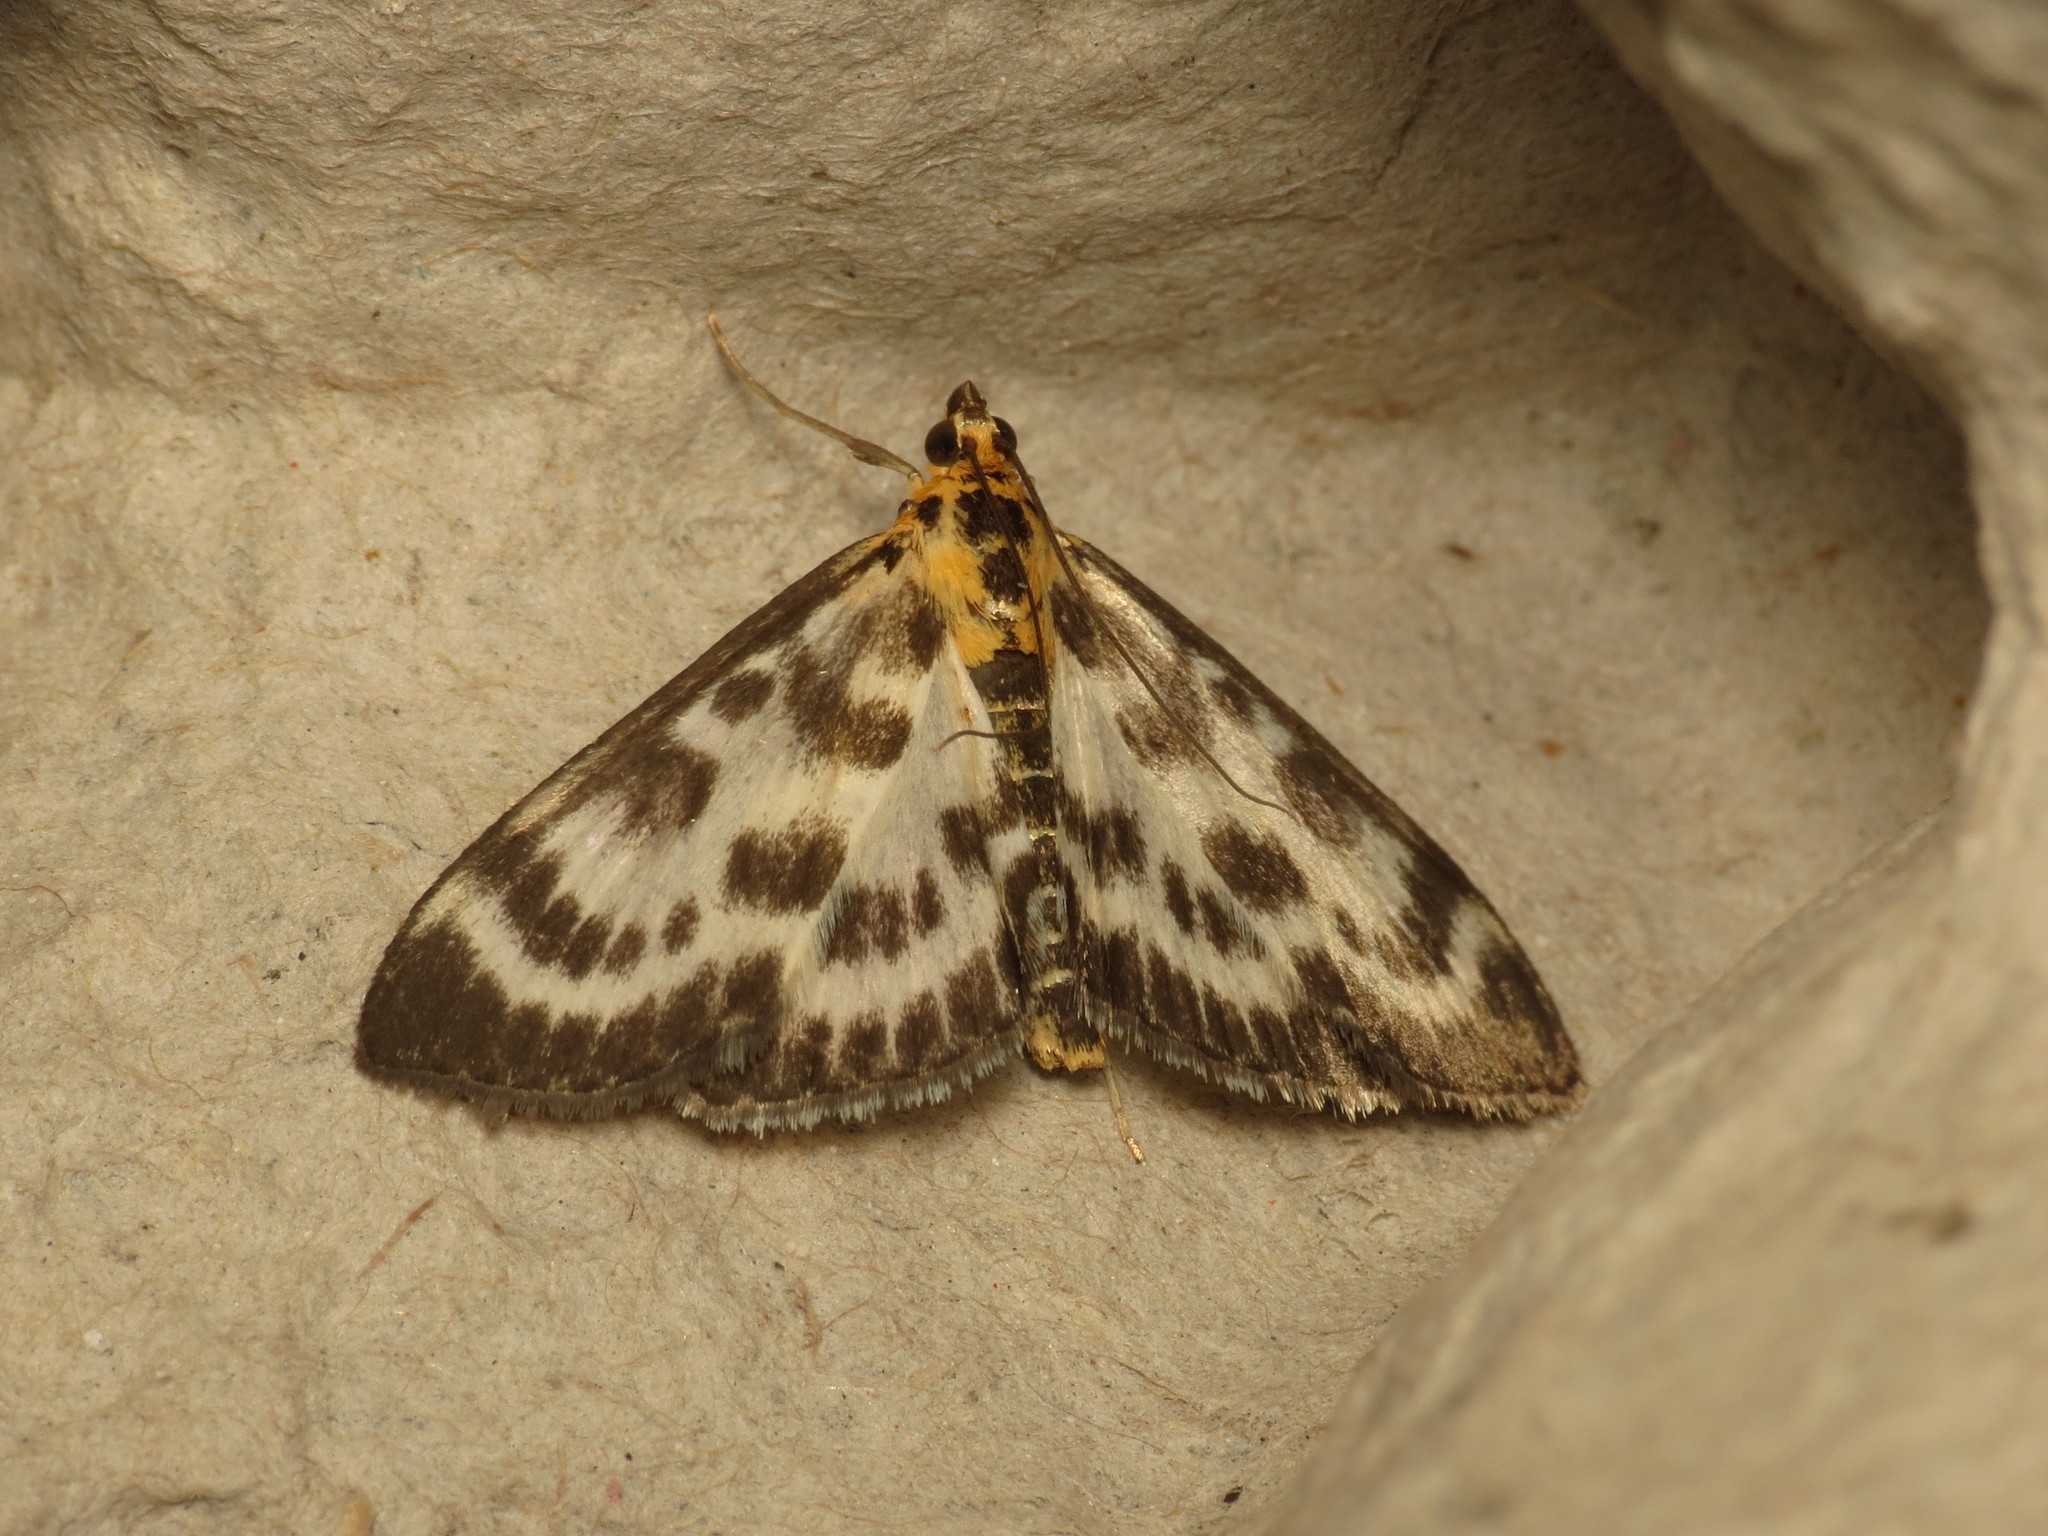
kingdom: Animalia
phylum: Arthropoda
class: Insecta
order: Lepidoptera
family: Crambidae
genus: Anania
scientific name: Anania hortulata
